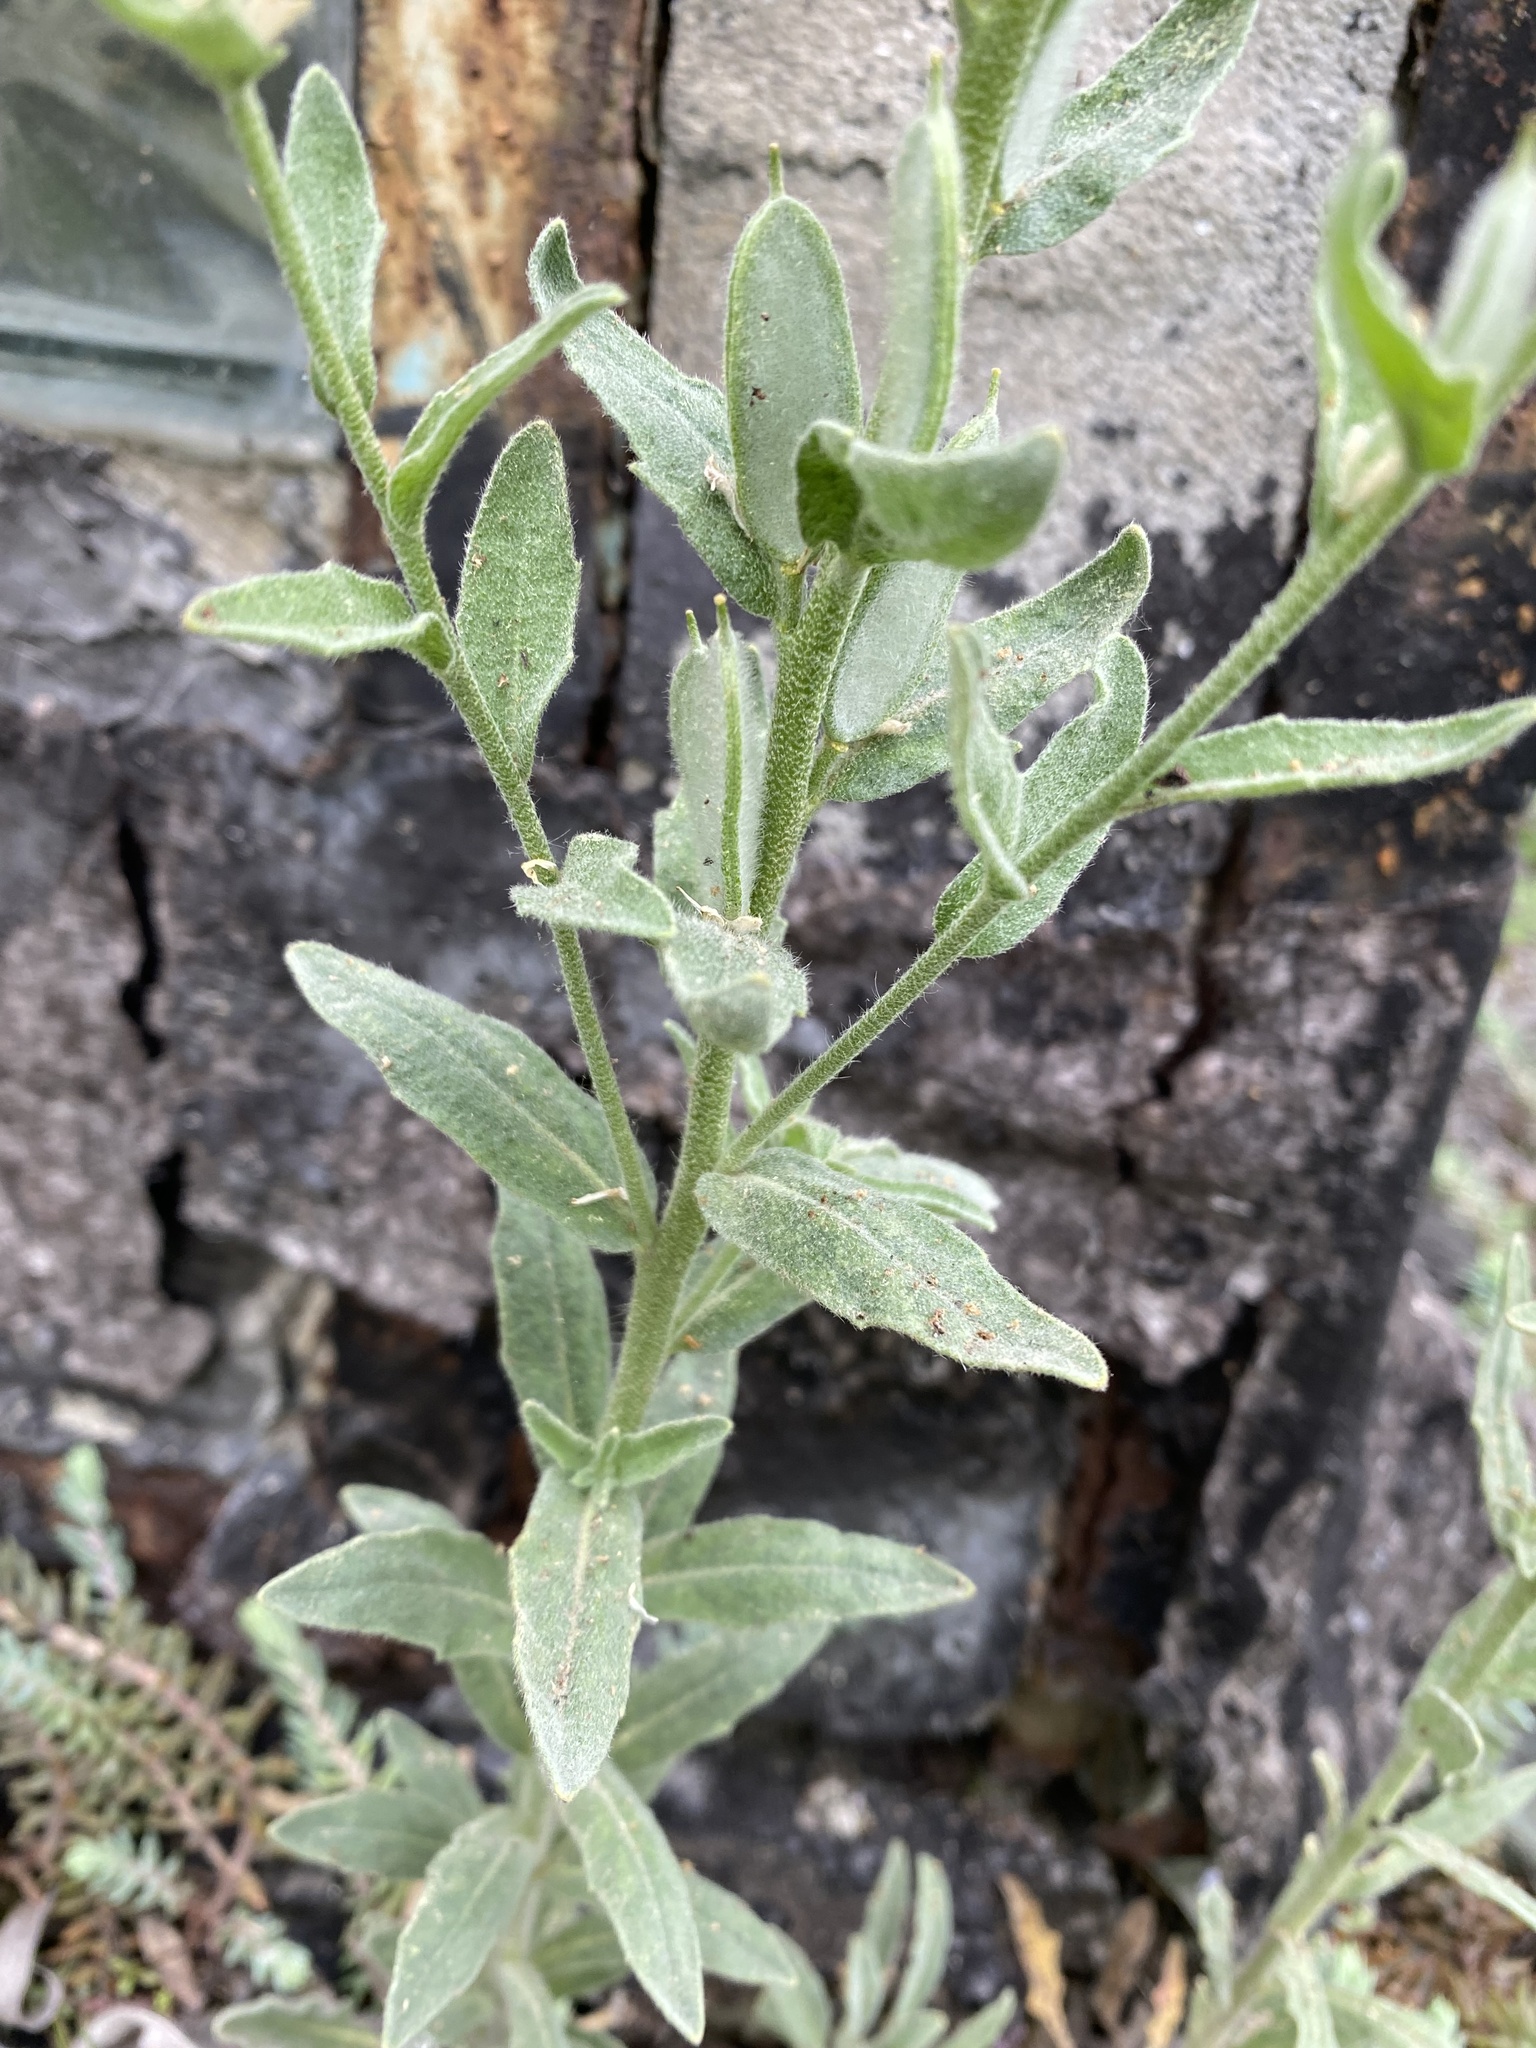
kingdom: Plantae
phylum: Tracheophyta
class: Magnoliopsida
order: Brassicales
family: Brassicaceae
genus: Fibigia
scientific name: Fibigia clypeata
